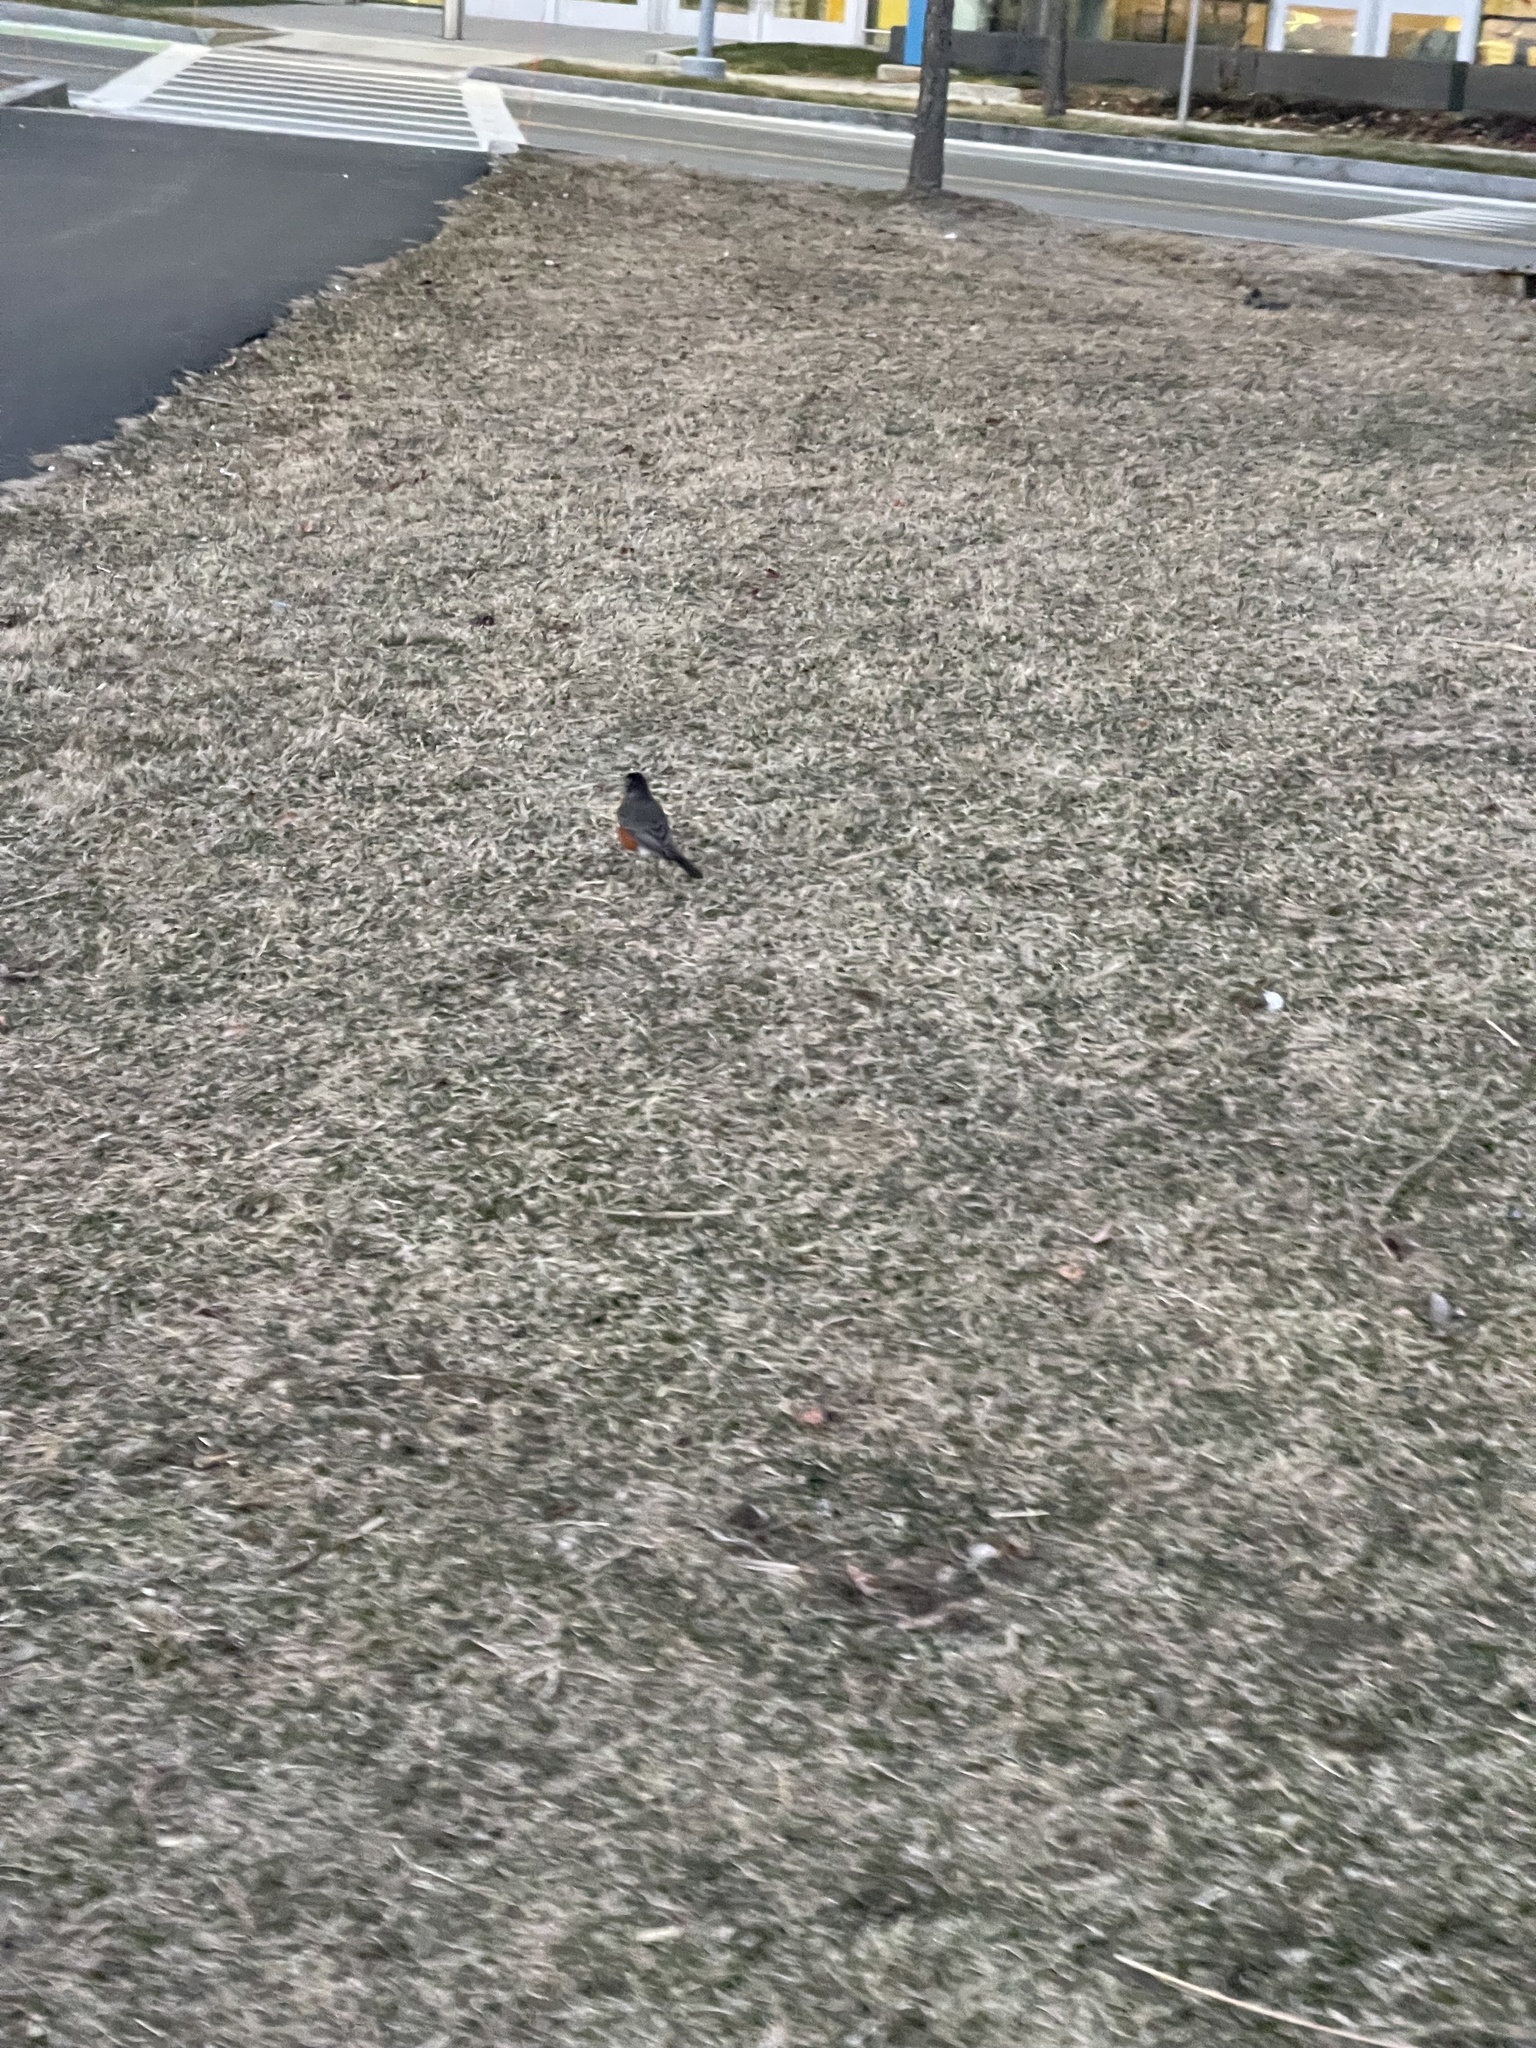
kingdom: Animalia
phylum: Chordata
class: Aves
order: Passeriformes
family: Turdidae
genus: Turdus
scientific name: Turdus migratorius
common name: American robin
